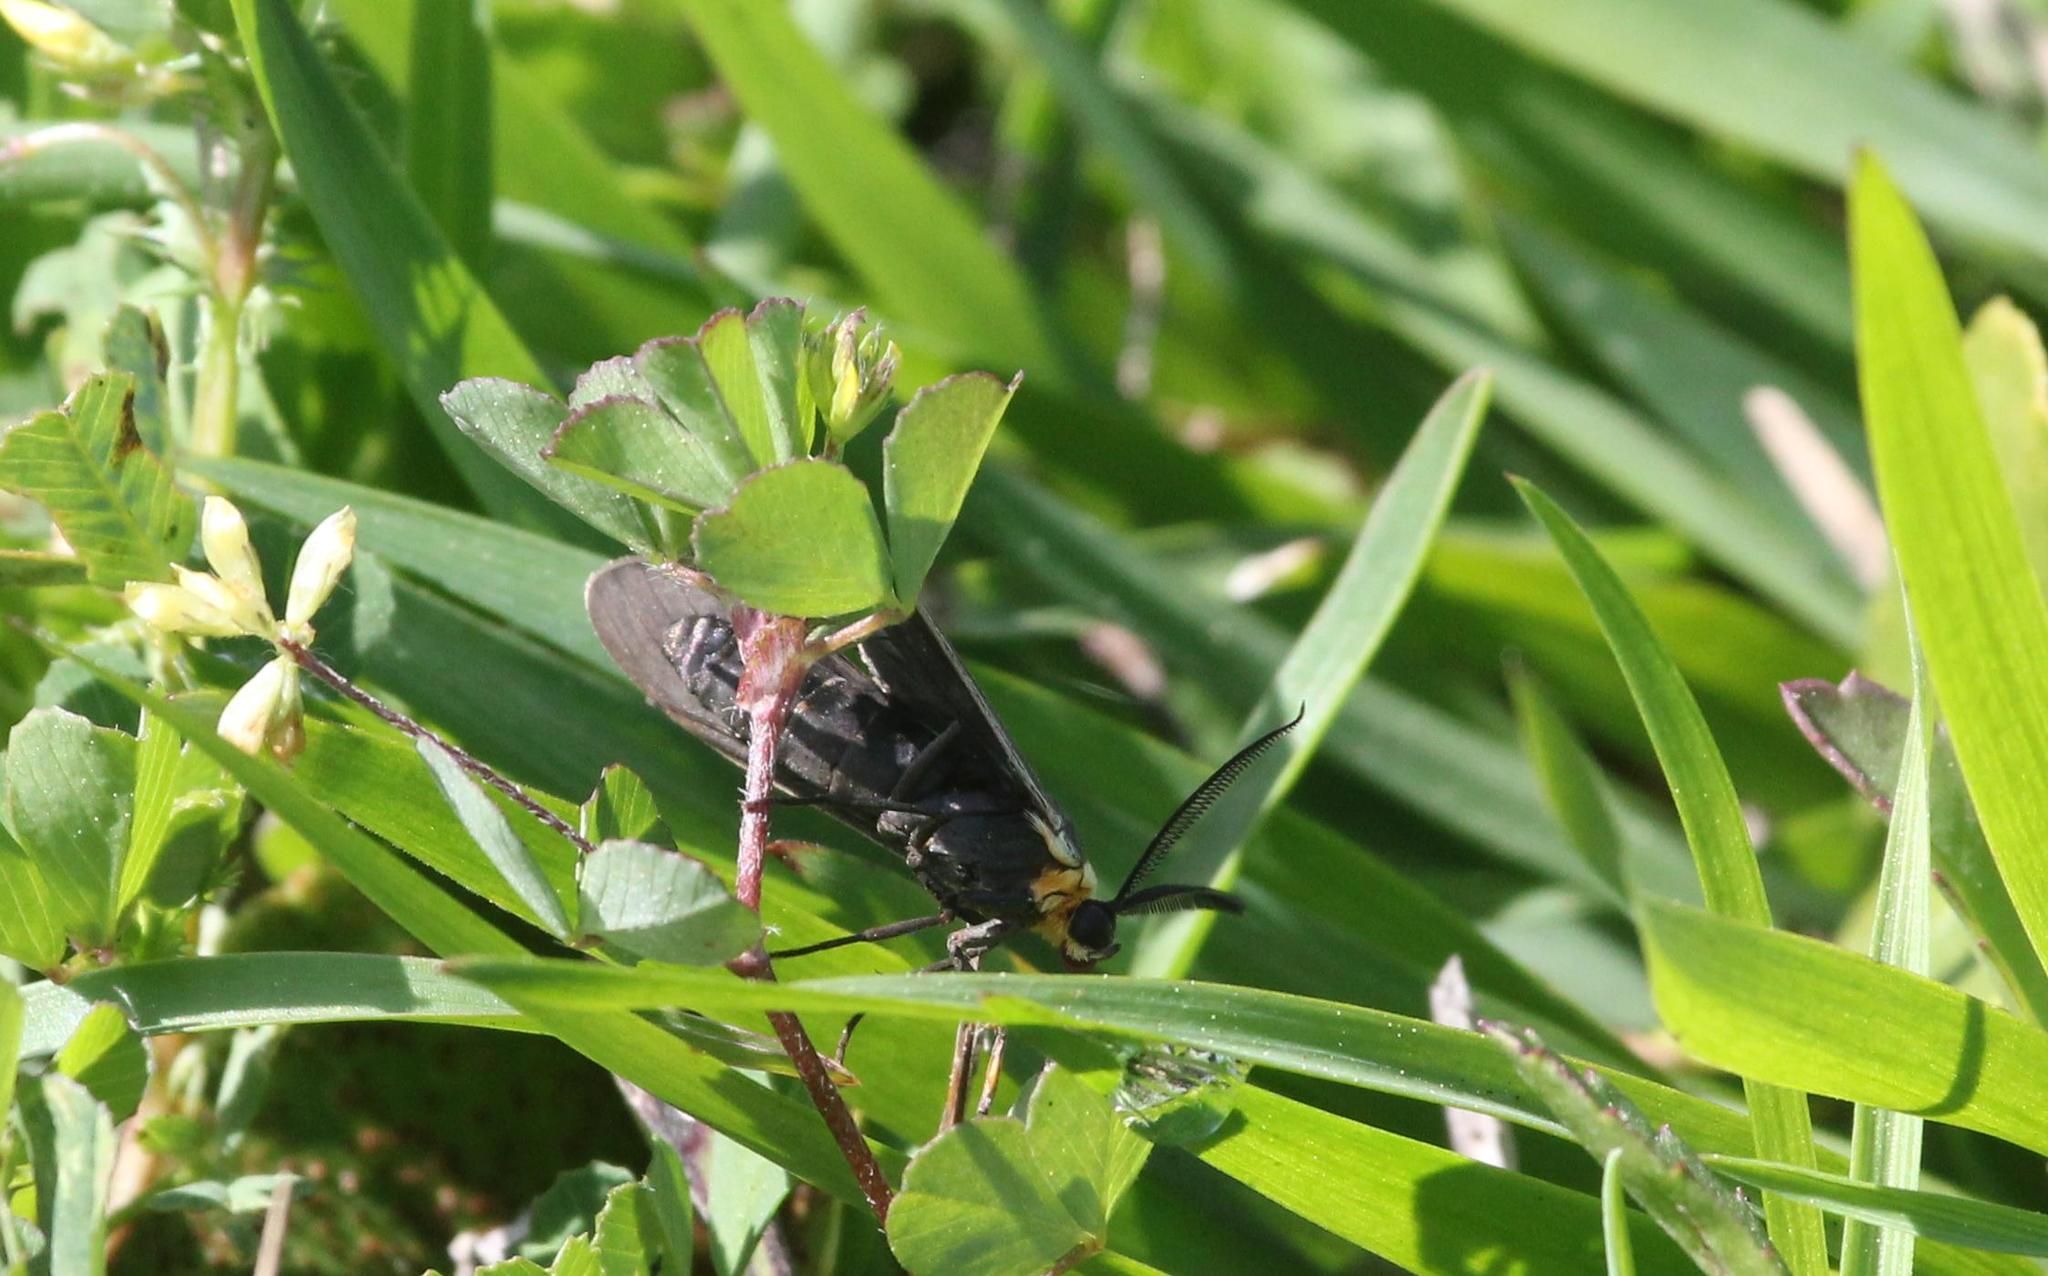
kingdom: Animalia
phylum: Arthropoda
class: Insecta
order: Lepidoptera
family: Erebidae
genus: Cisseps
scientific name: Cisseps fulvicollis
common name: Yellow-collared scape moth
